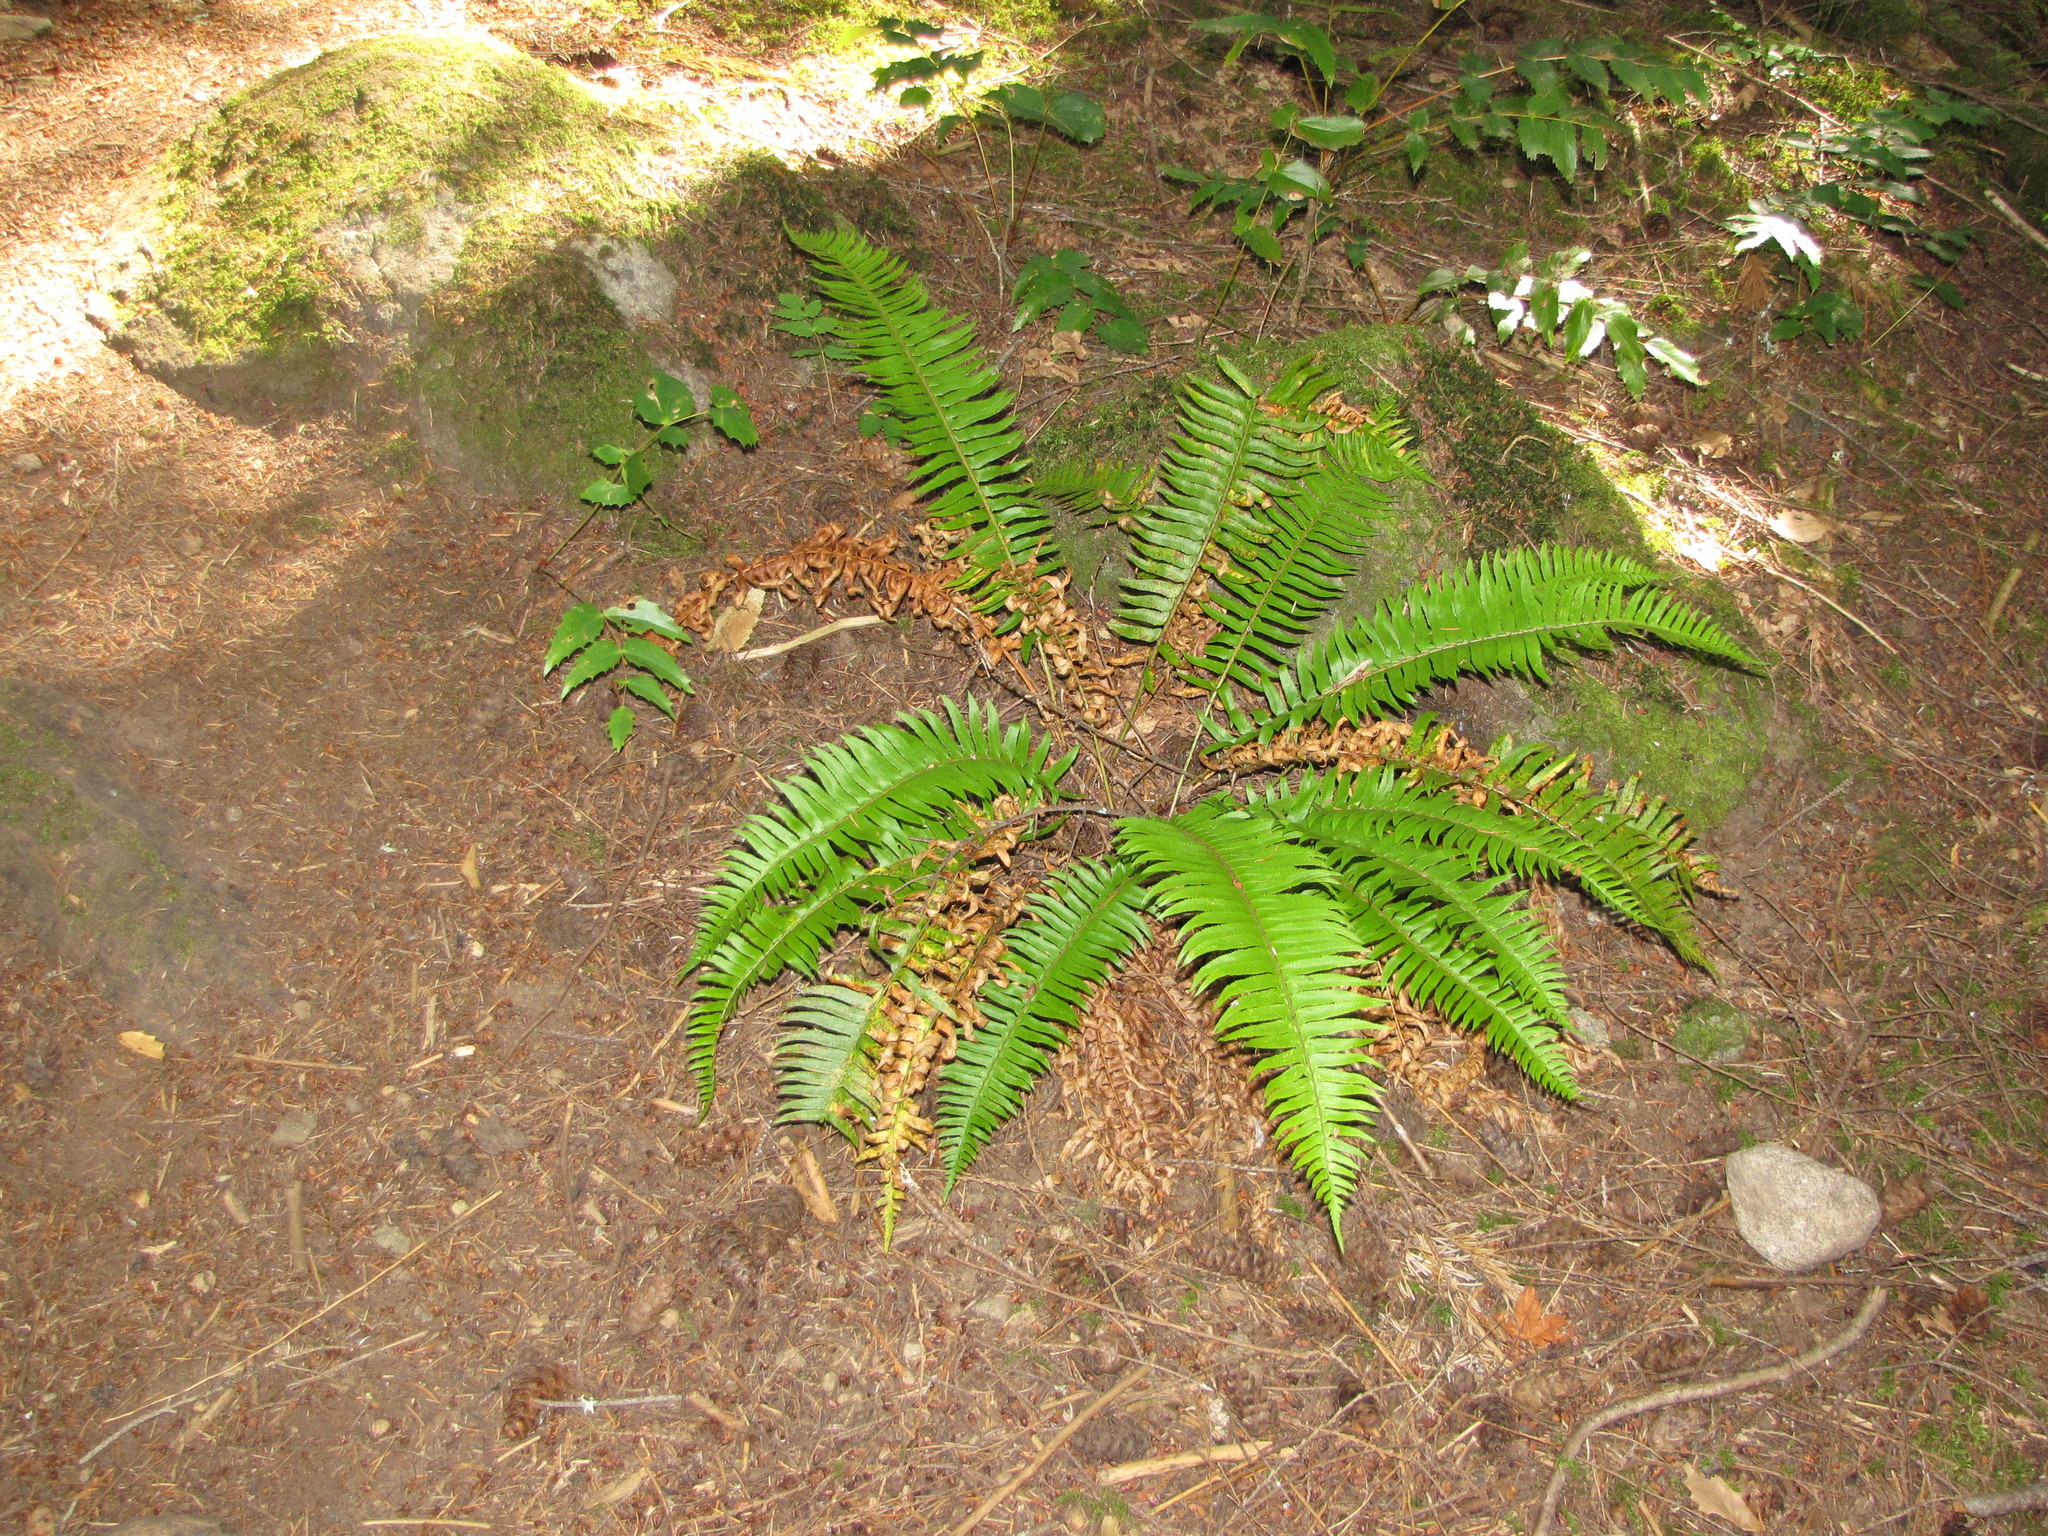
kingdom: Plantae
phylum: Tracheophyta
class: Polypodiopsida
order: Polypodiales
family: Dryopteridaceae
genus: Polystichum
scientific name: Polystichum munitum
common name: Western sword-fern
